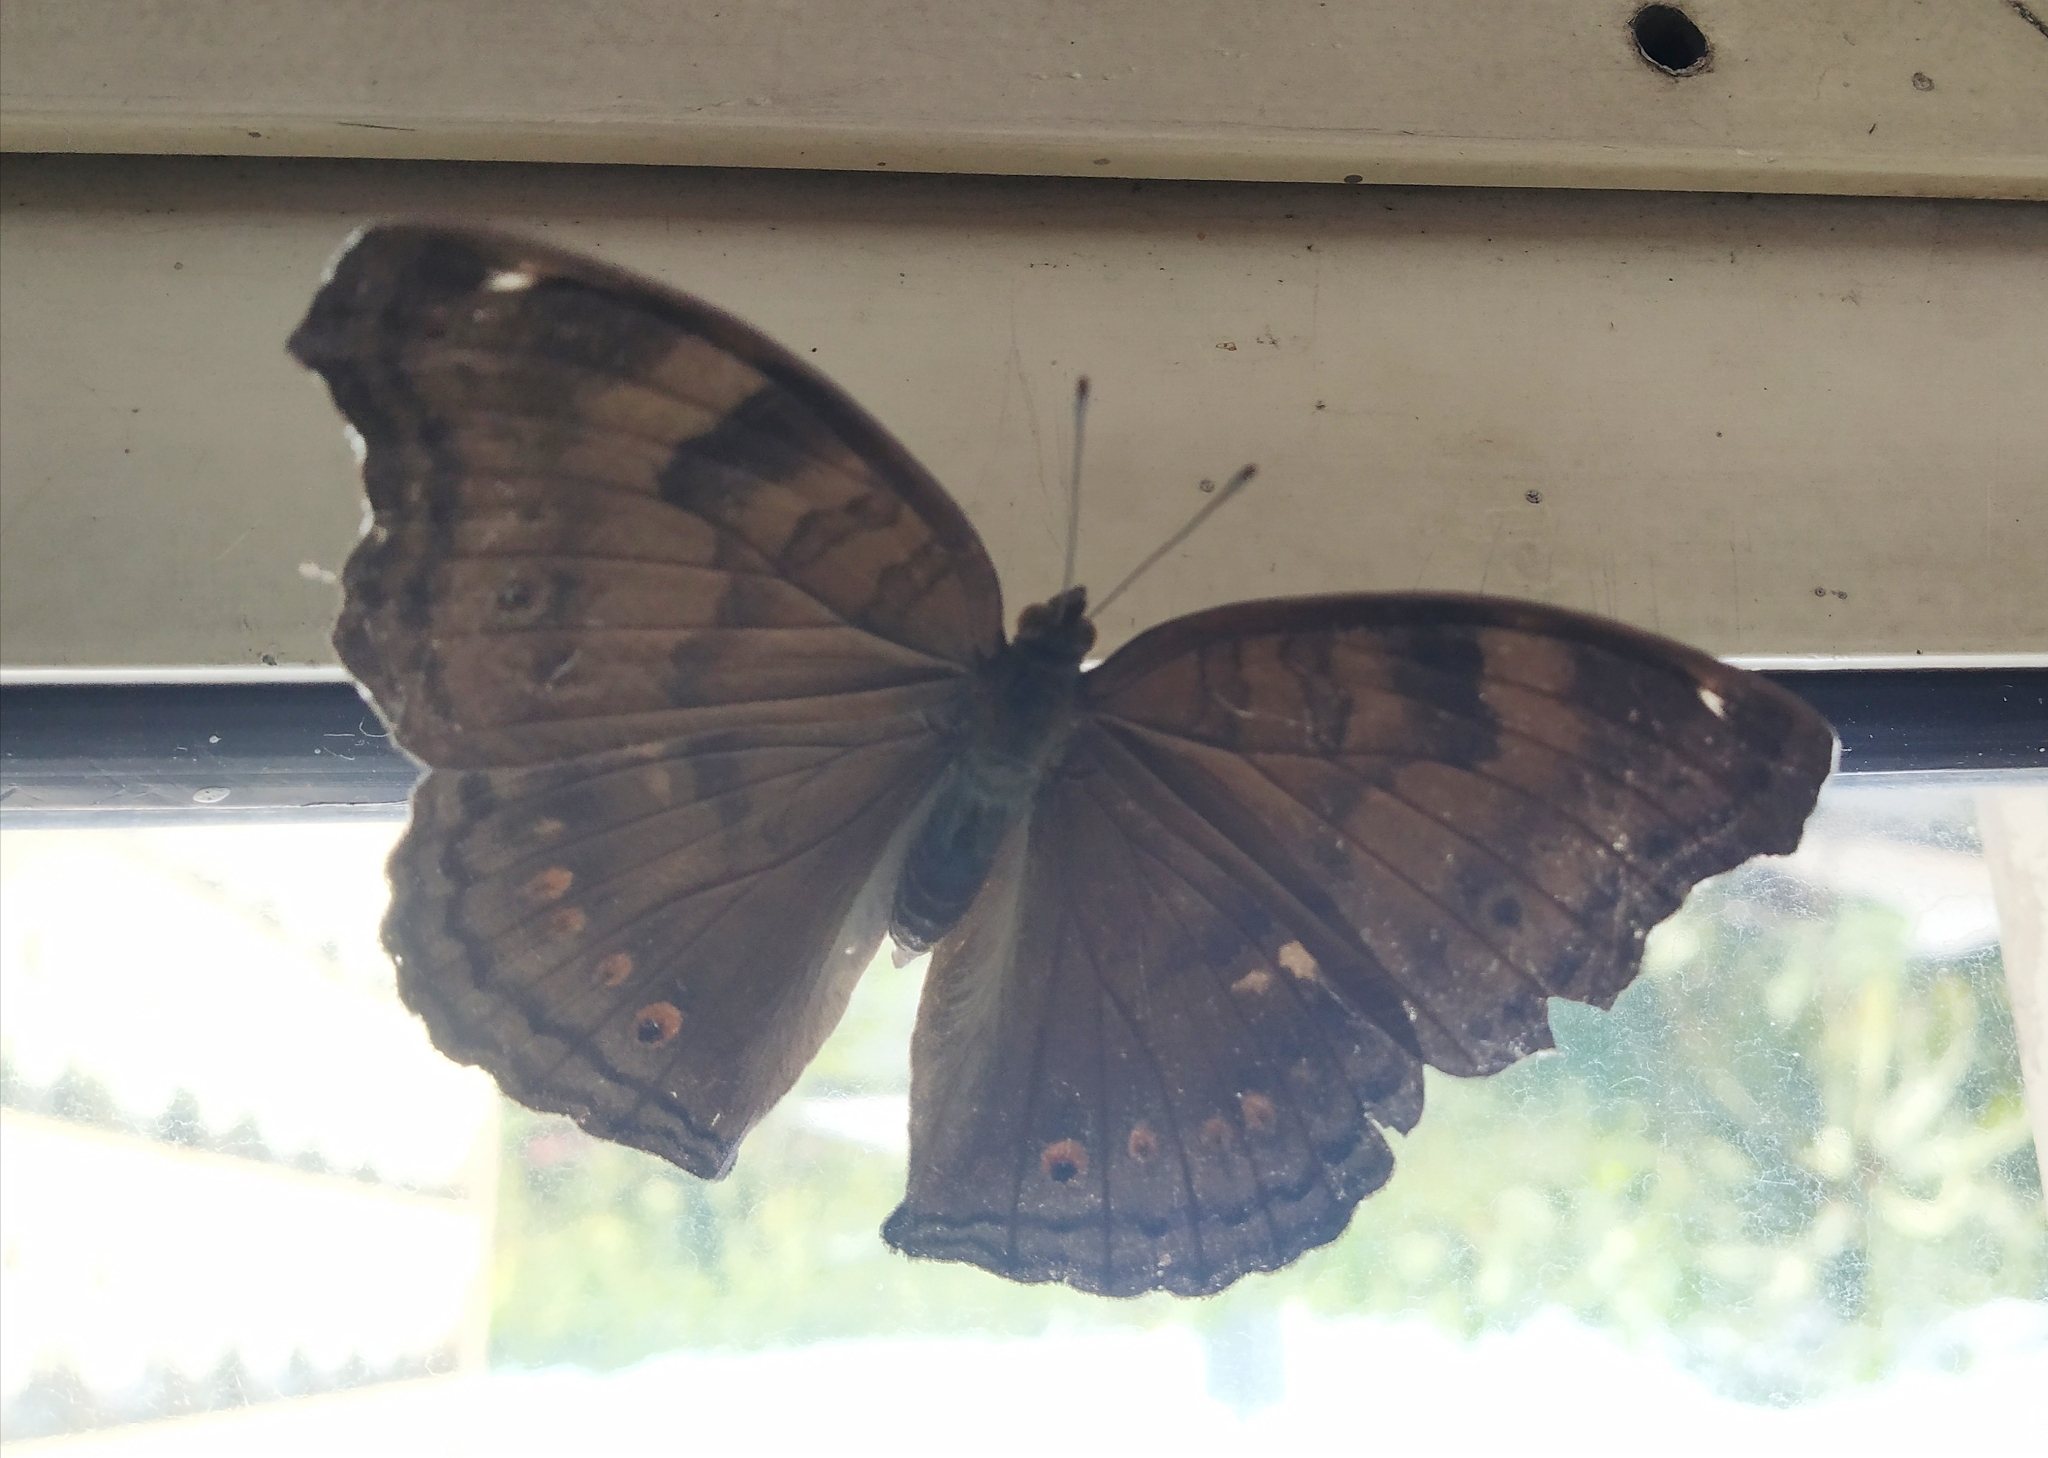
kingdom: Animalia
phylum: Arthropoda
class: Insecta
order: Lepidoptera
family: Nymphalidae
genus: Junonia
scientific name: Junonia iphita
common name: Chocolate pansy
